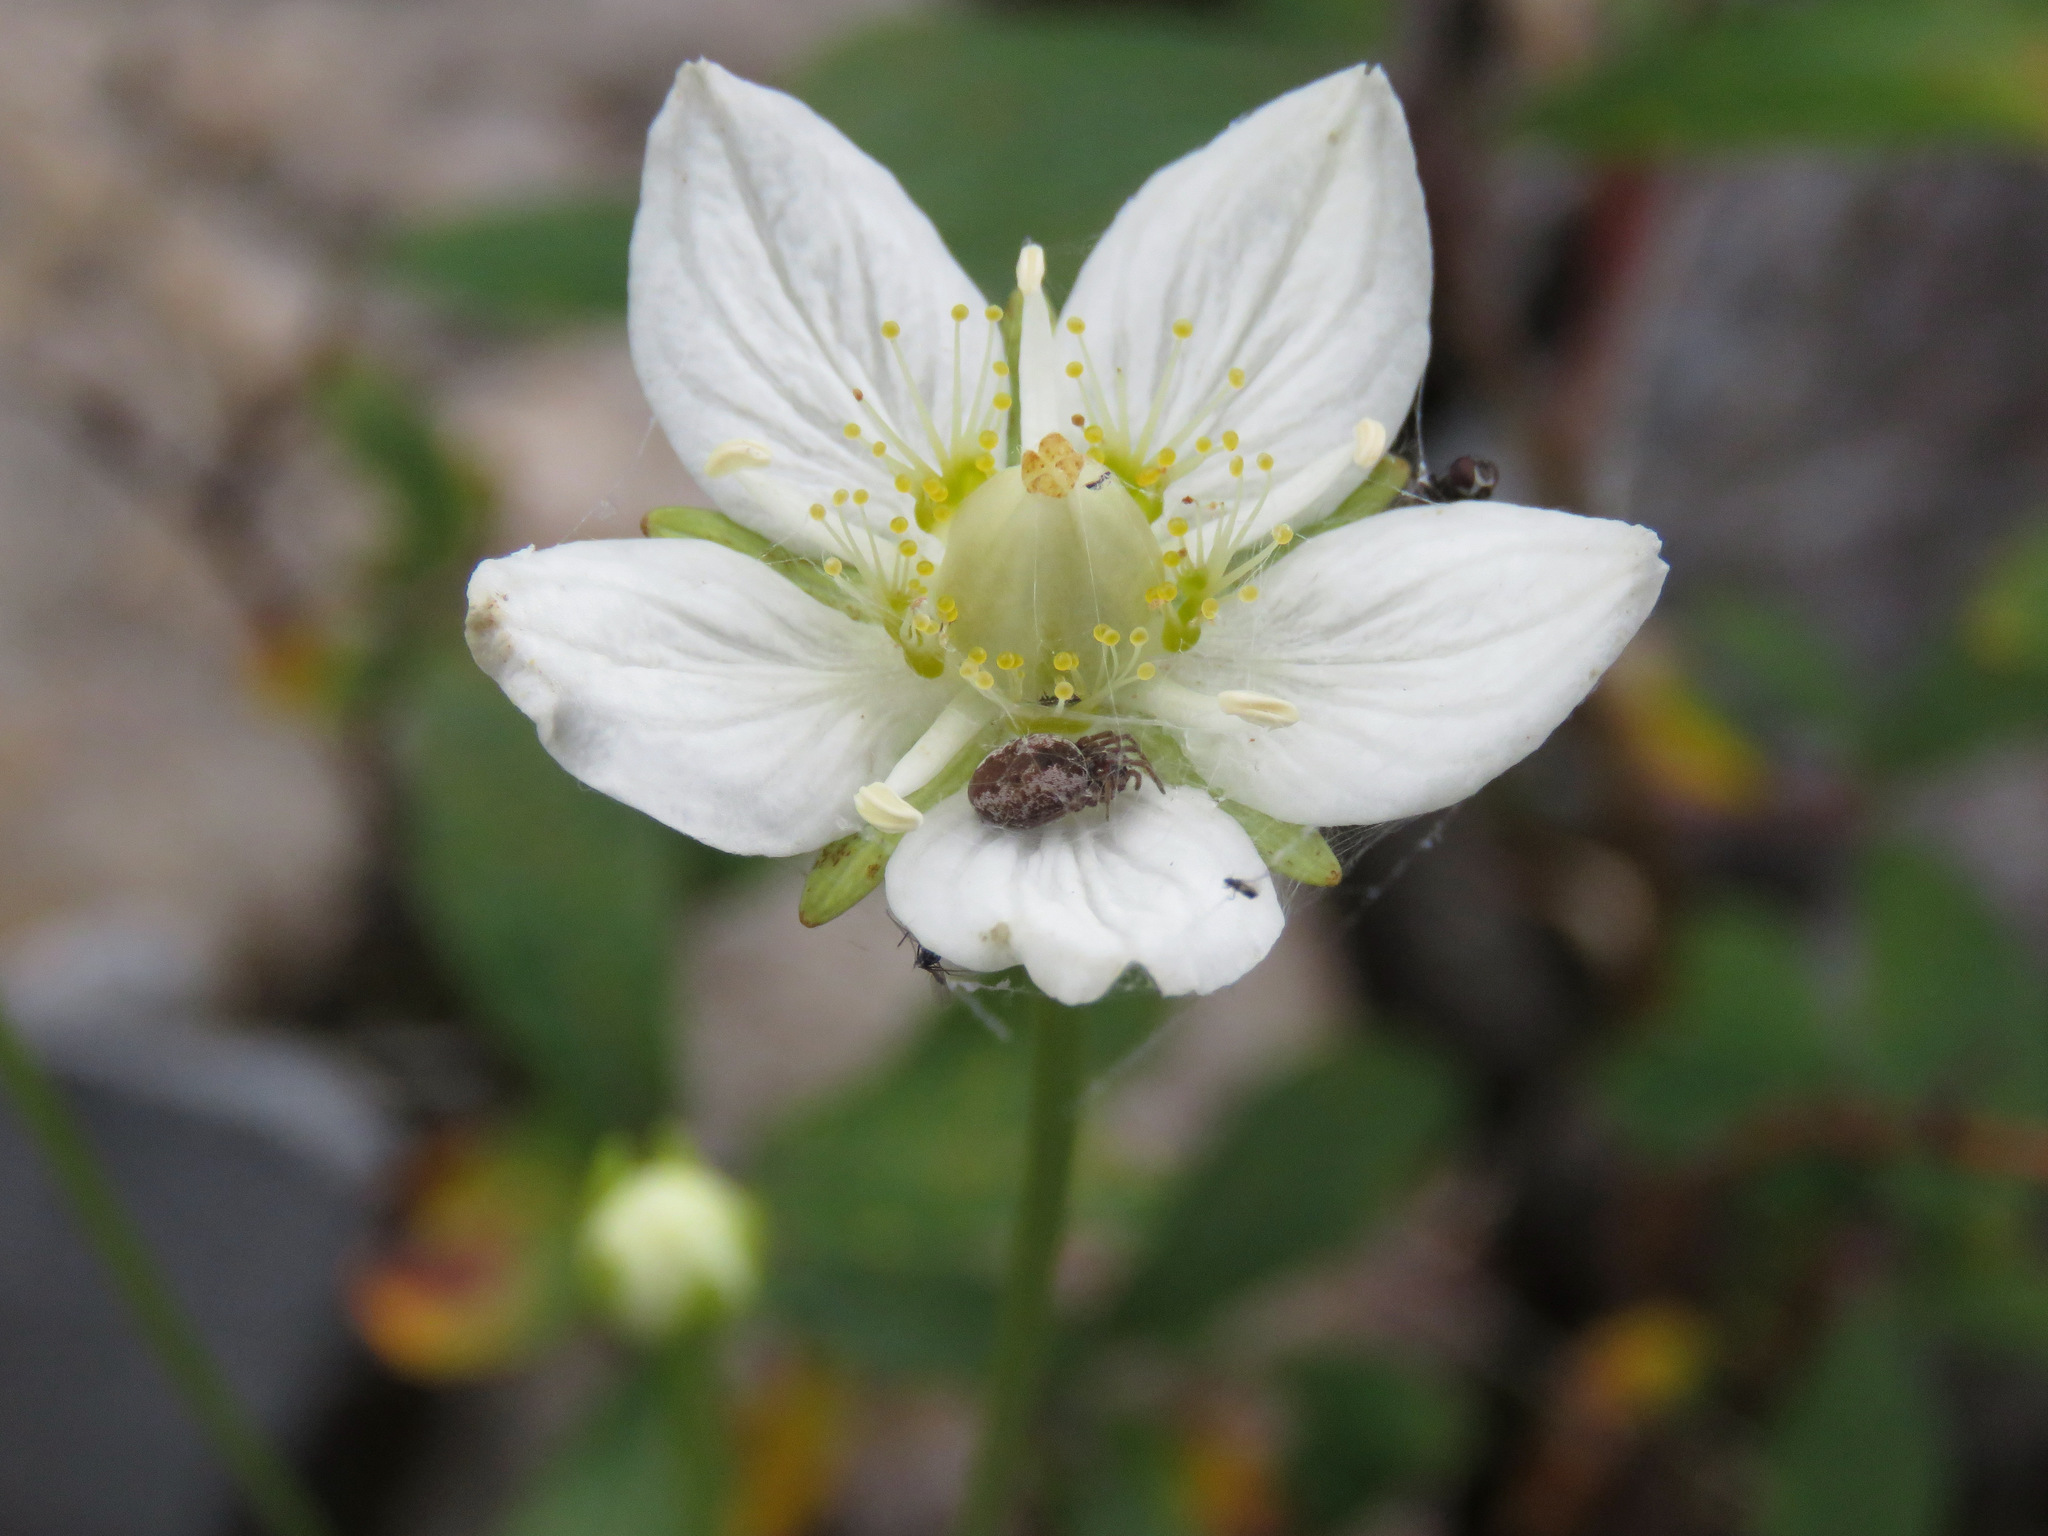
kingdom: Plantae
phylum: Tracheophyta
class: Magnoliopsida
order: Celastrales
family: Parnassiaceae
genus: Parnassia
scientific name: Parnassia palustris
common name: Grass-of-parnassus
